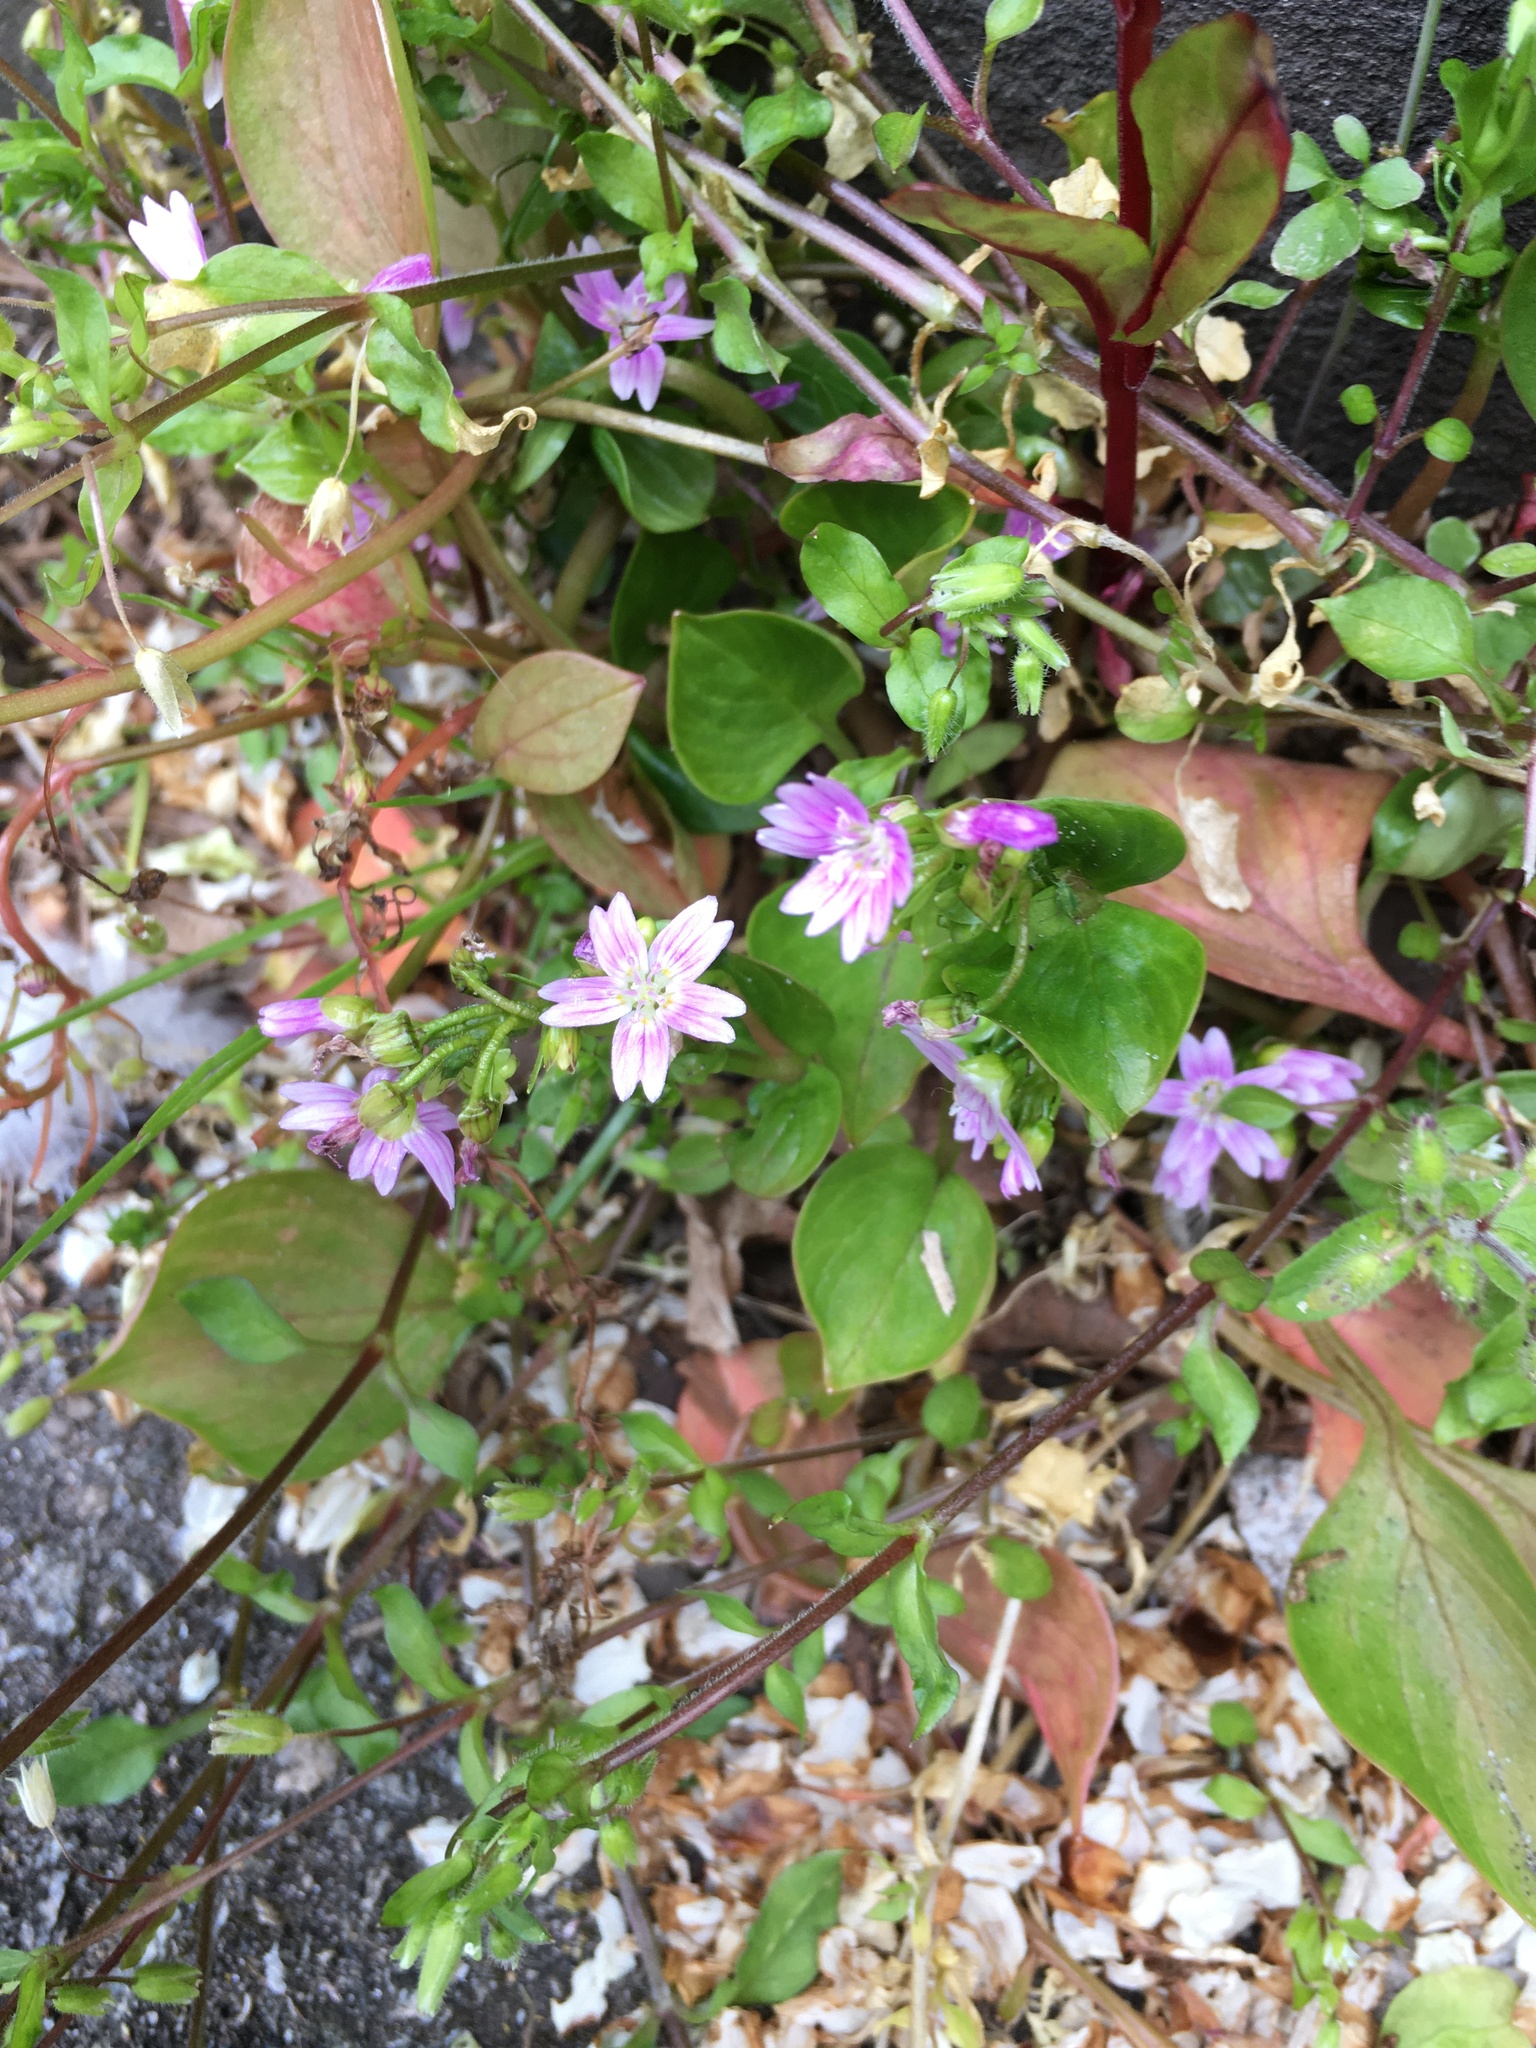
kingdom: Plantae
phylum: Tracheophyta
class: Magnoliopsida
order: Caryophyllales
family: Montiaceae
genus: Claytonia
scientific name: Claytonia sibirica
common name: Pink purslane
